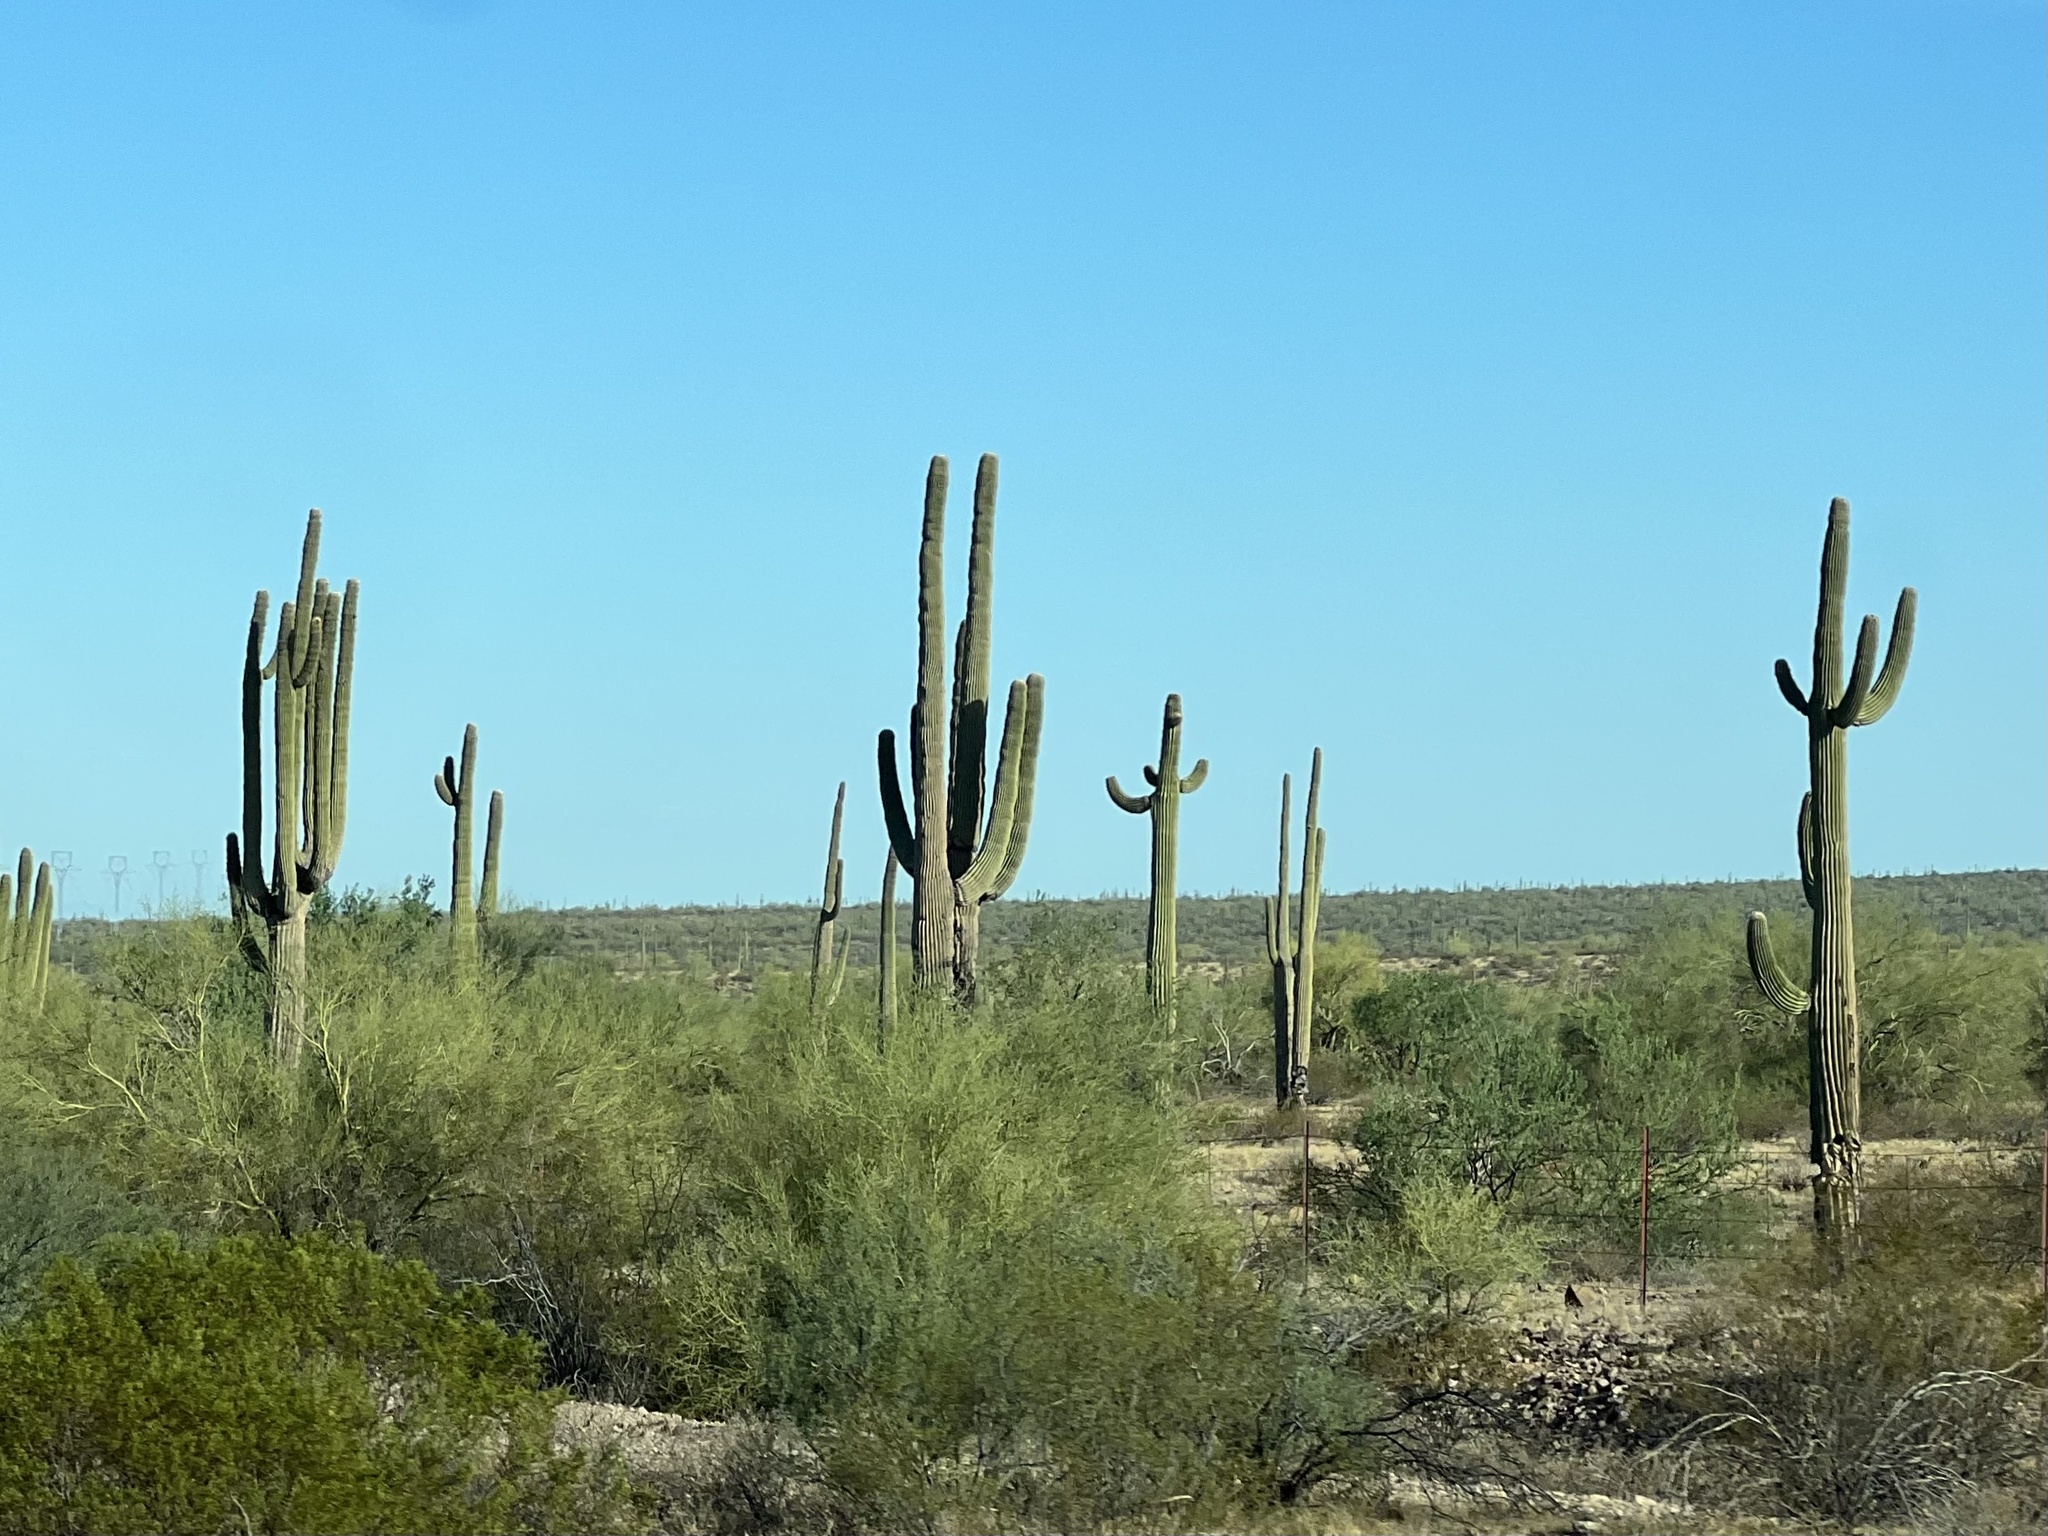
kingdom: Plantae
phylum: Tracheophyta
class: Magnoliopsida
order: Caryophyllales
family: Cactaceae
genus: Carnegiea
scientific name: Carnegiea gigantea
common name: Saguaro
